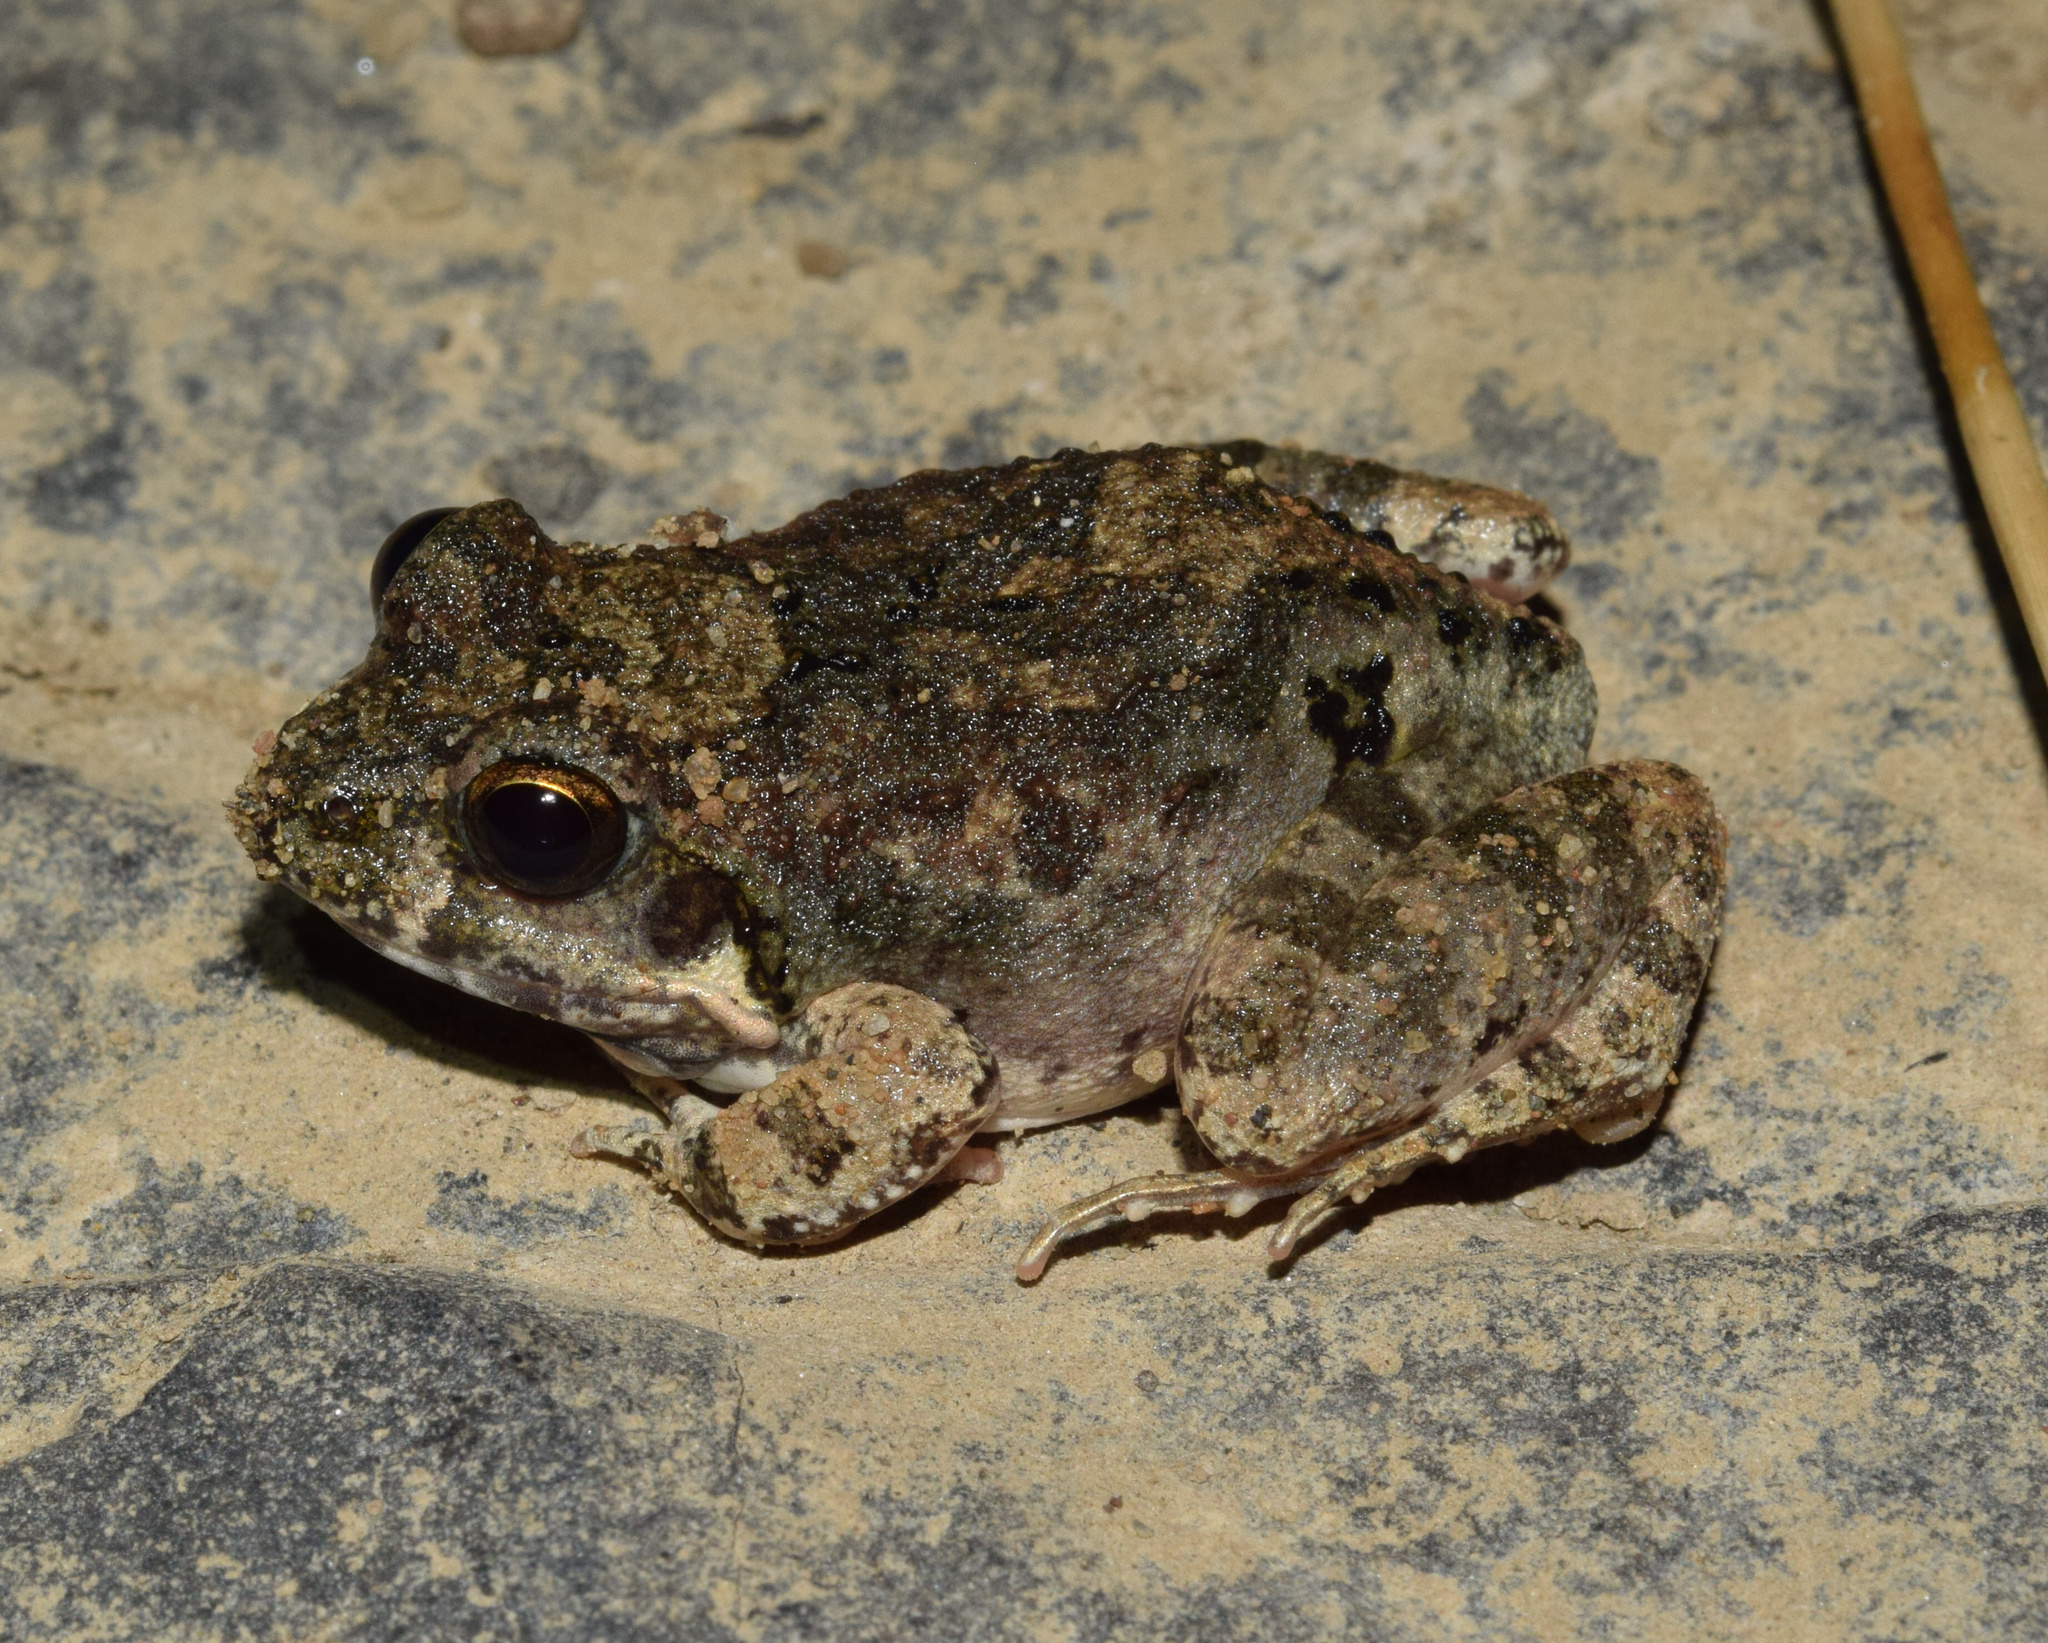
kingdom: Animalia
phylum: Chordata
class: Amphibia
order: Anura
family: Pyxicephalidae
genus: Tomopterna
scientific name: Tomopterna natalensis
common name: Natal sand frog
